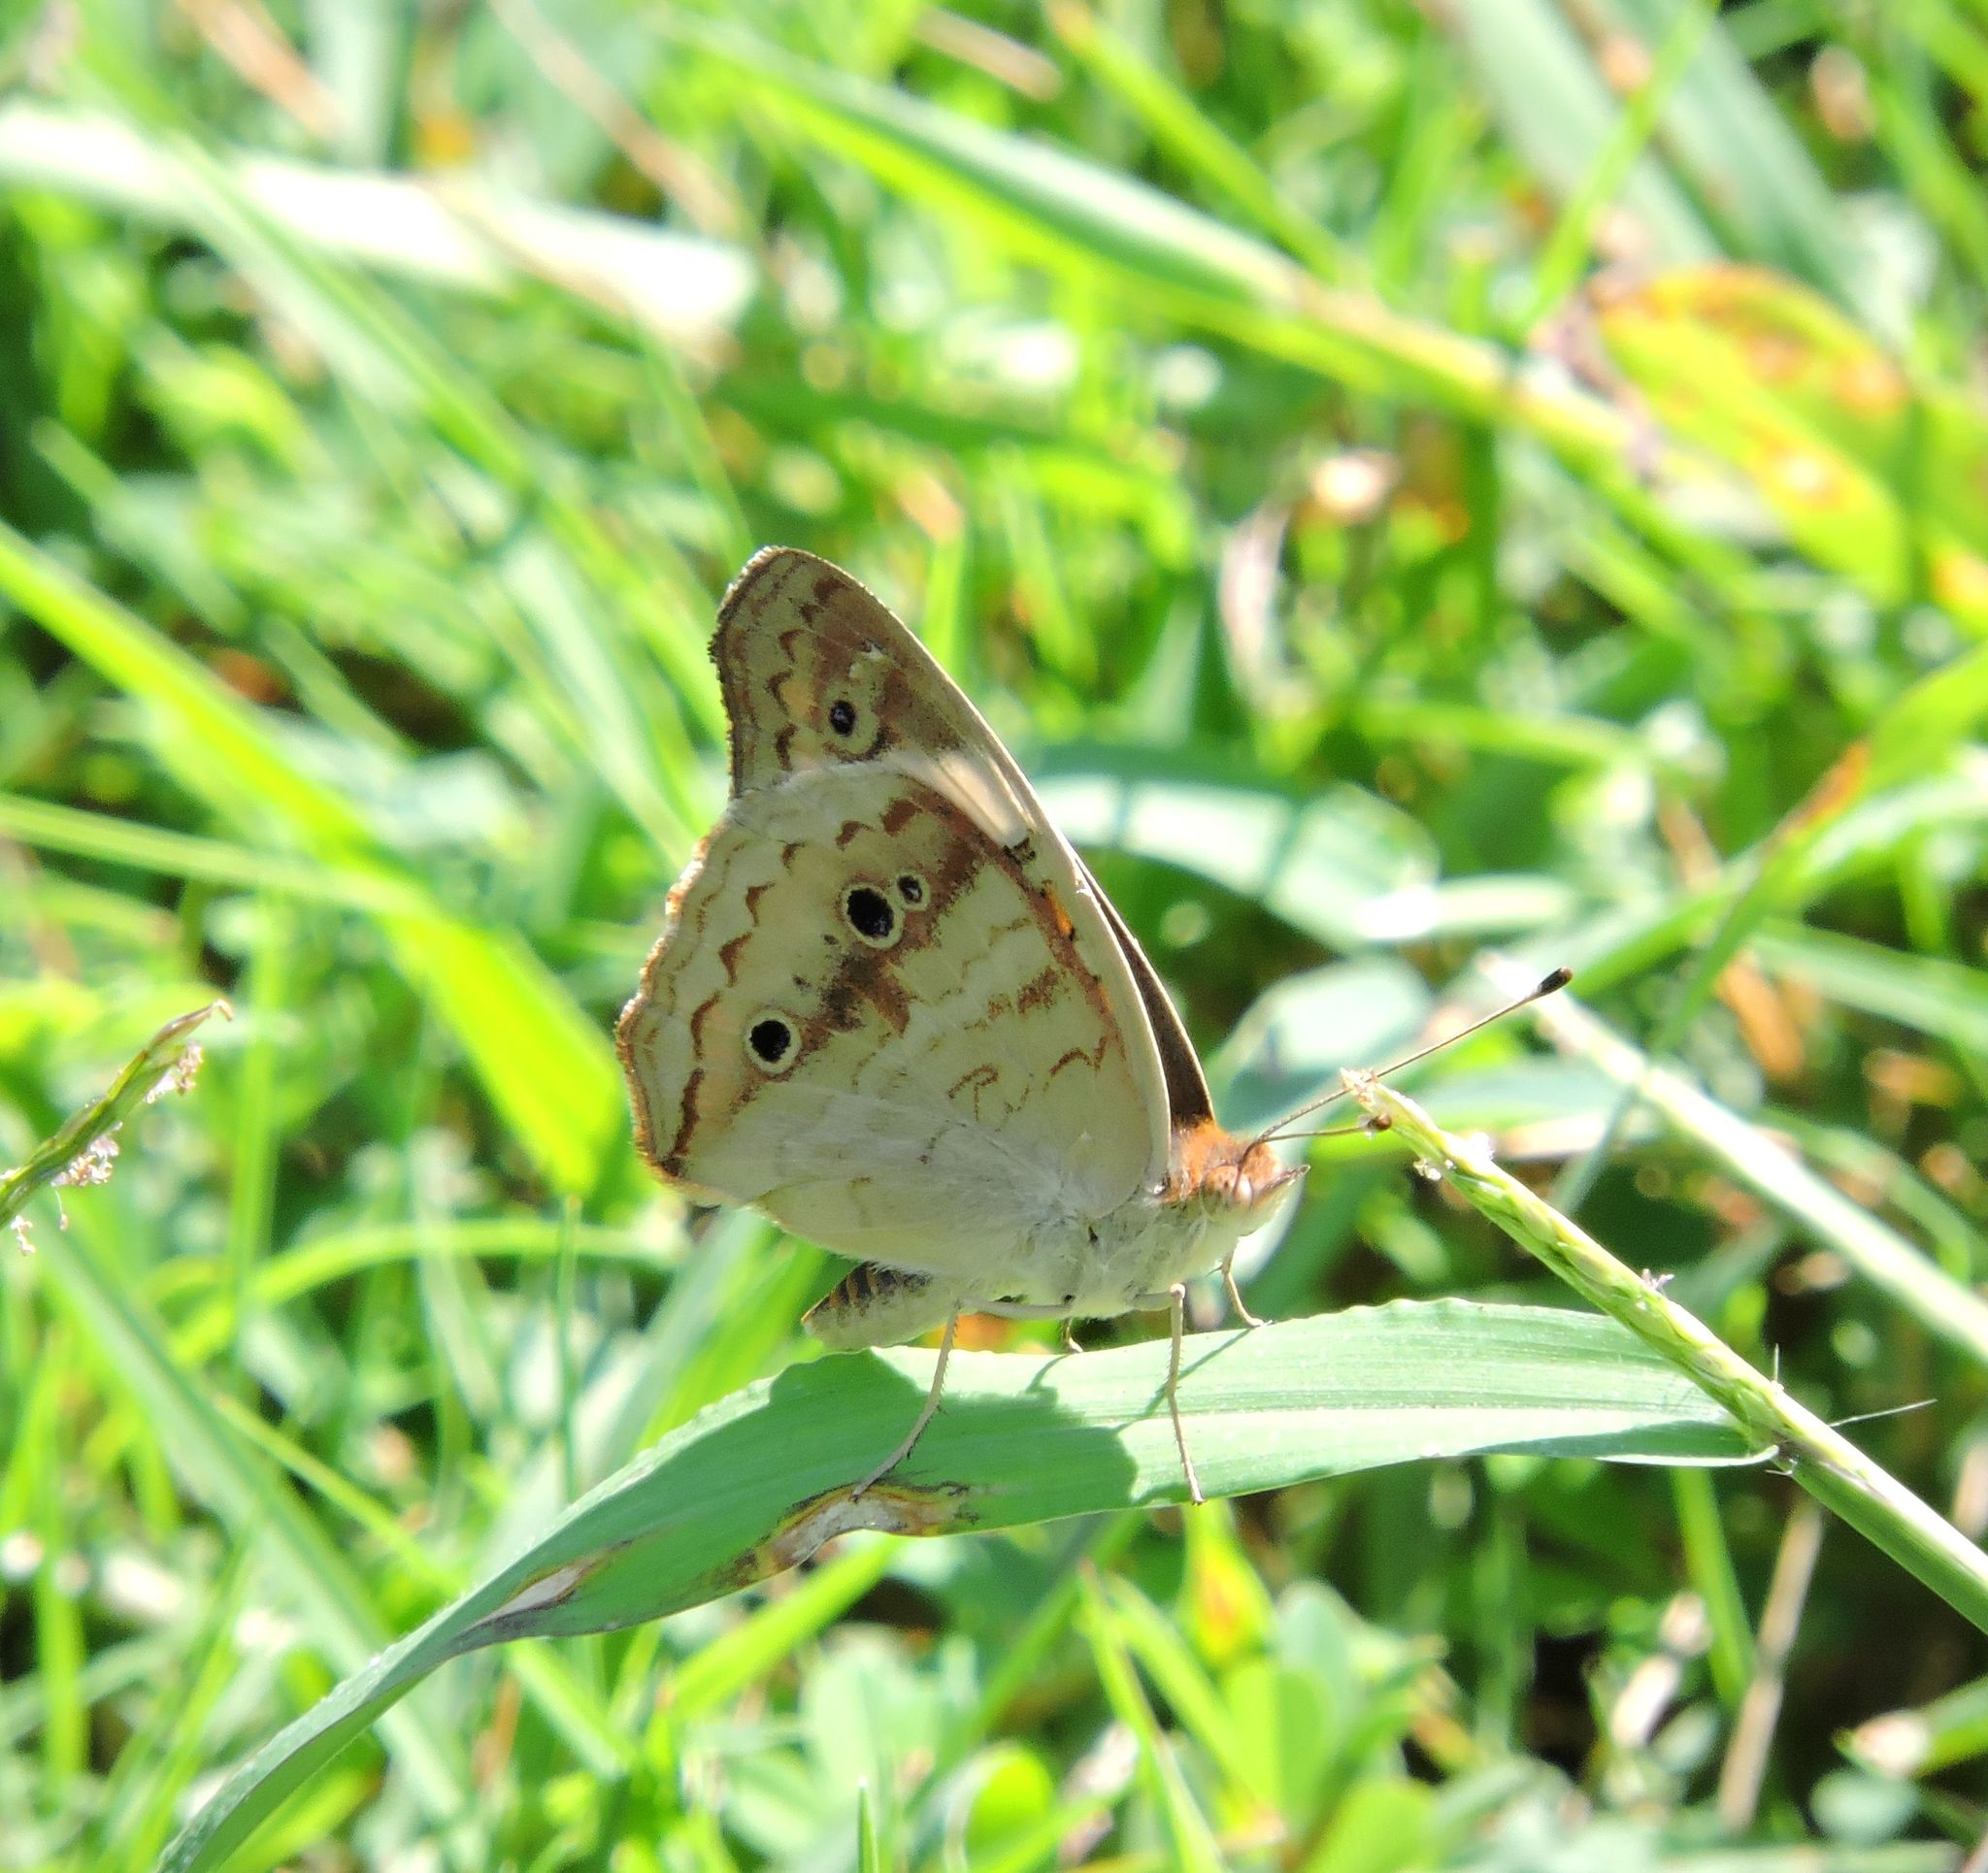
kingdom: Animalia
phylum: Arthropoda
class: Insecta
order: Lepidoptera
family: Nymphalidae
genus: Junonia
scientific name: Junonia coenia
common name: Common buckeye
